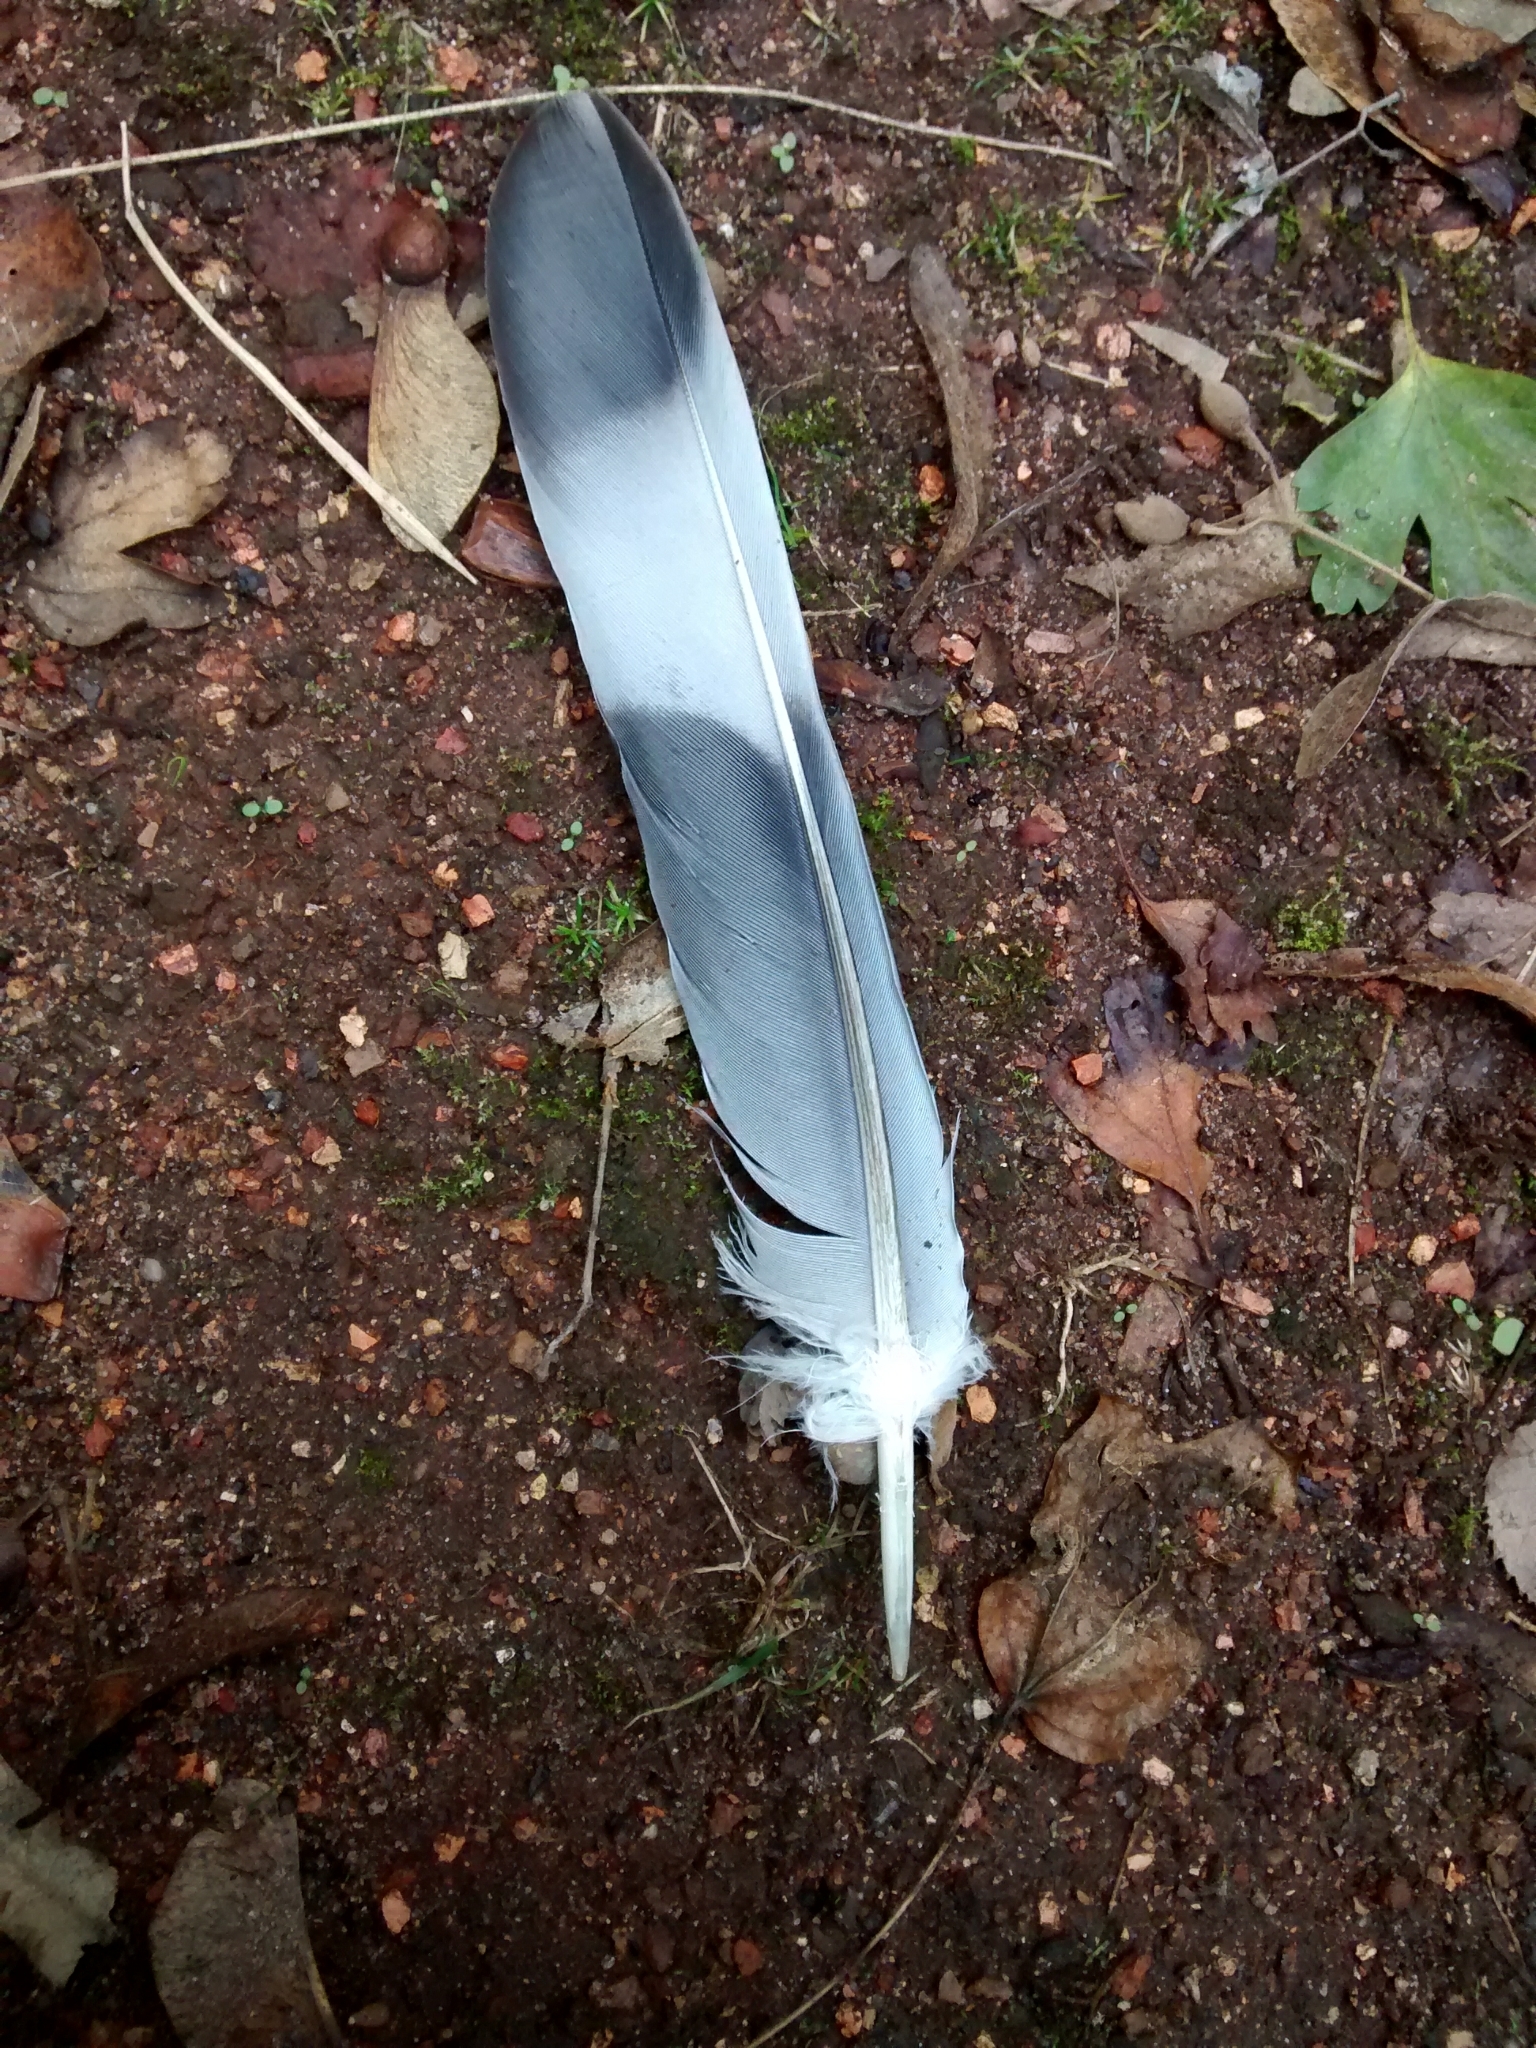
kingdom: Animalia
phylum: Chordata
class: Aves
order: Columbiformes
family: Columbidae
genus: Columba
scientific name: Columba palumbus
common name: Common wood pigeon
